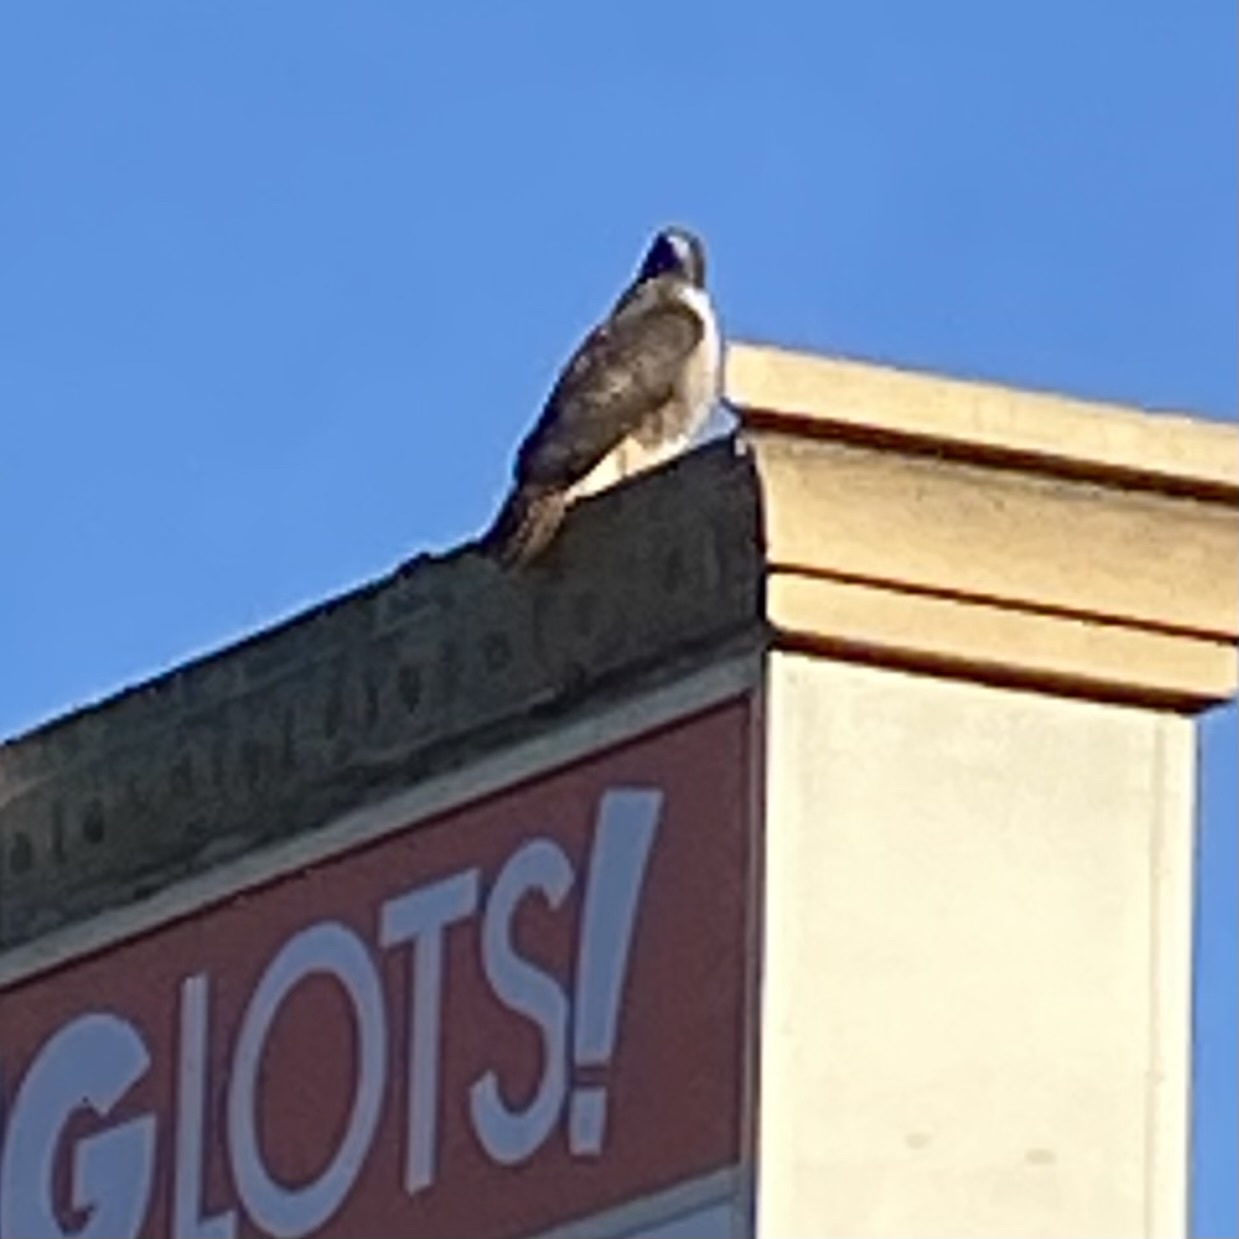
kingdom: Animalia
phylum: Chordata
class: Aves
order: Accipitriformes
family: Accipitridae
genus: Buteo
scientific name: Buteo jamaicensis
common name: Red-tailed hawk
